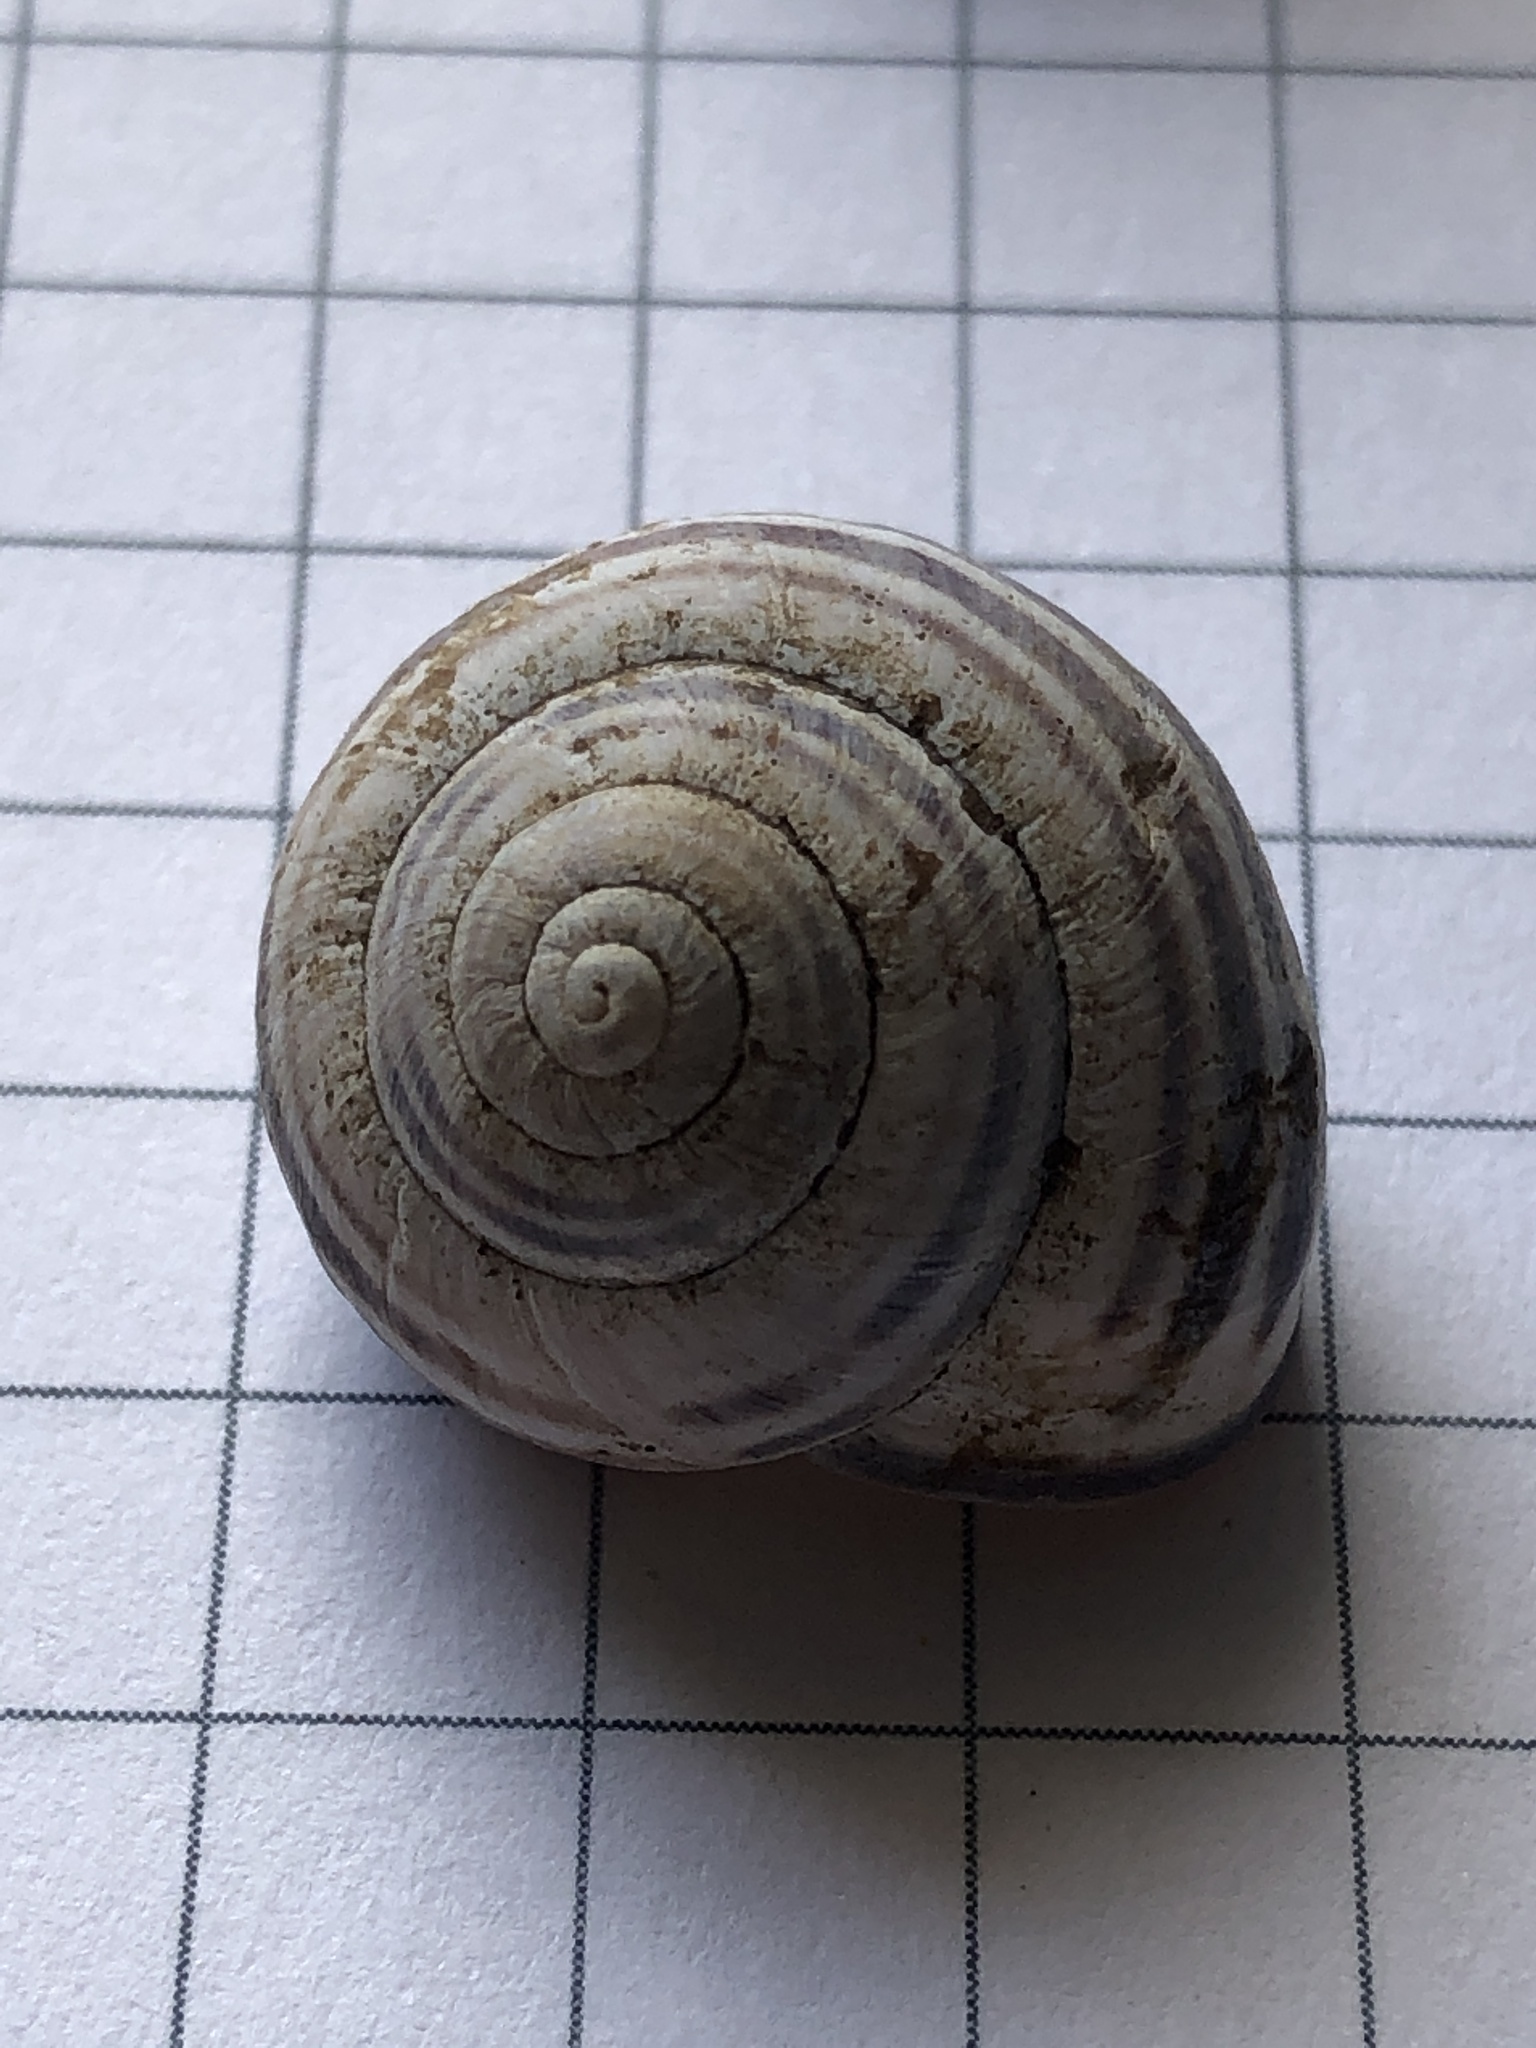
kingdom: Animalia
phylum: Mollusca
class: Gastropoda
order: Stylommatophora
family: Helicidae
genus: Cepaea
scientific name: Cepaea nemoralis
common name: Grovesnail
